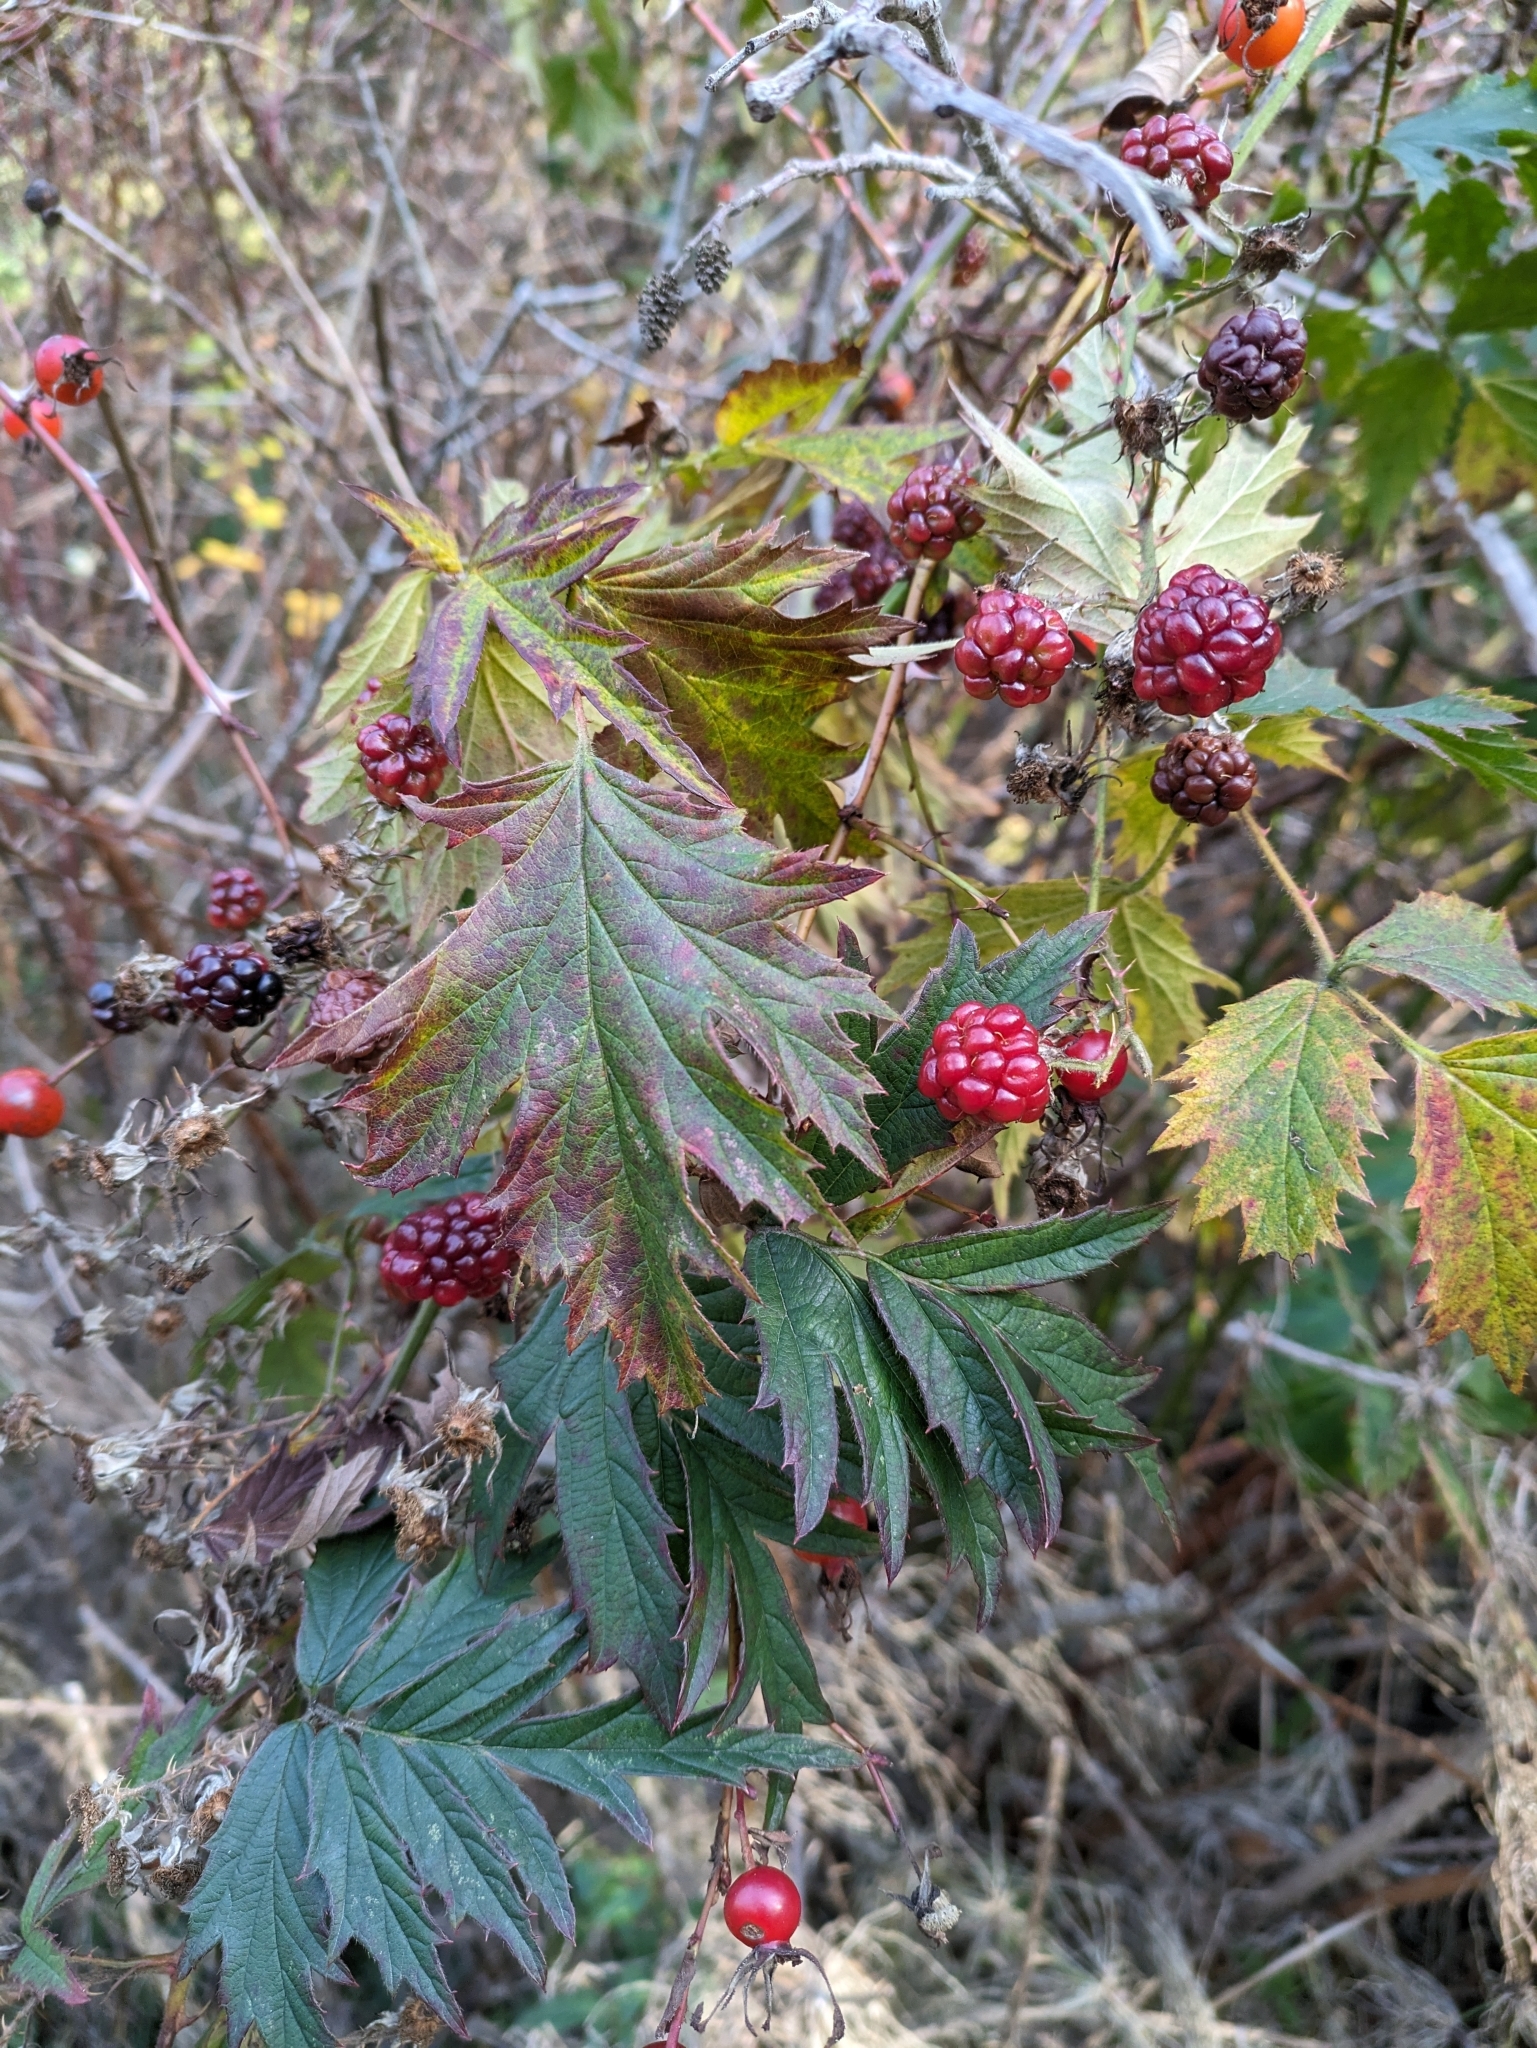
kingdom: Plantae
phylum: Tracheophyta
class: Magnoliopsida
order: Rosales
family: Rosaceae
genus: Rubus
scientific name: Rubus laciniatus
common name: Evergreen blackberry
